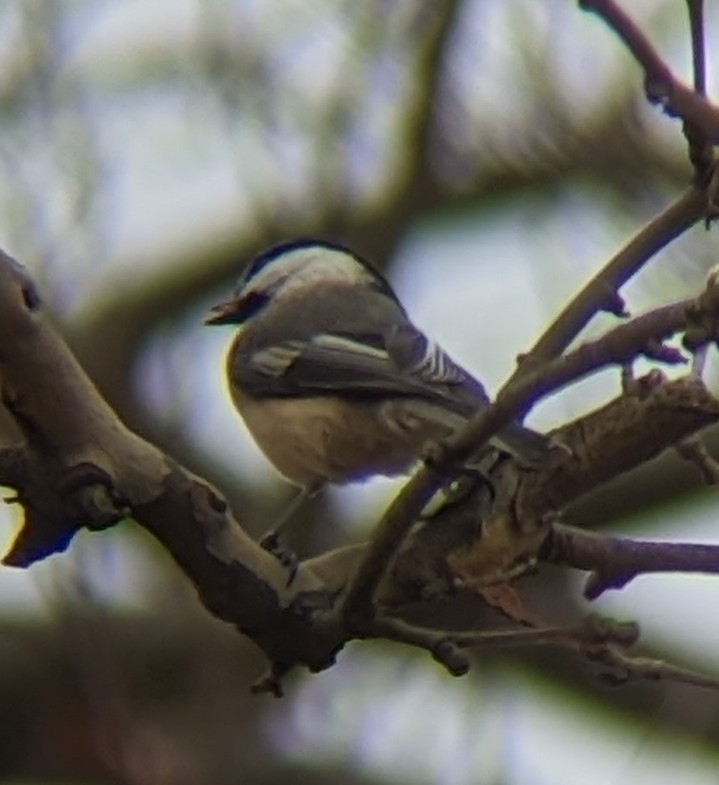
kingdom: Animalia
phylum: Chordata
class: Aves
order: Passeriformes
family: Paridae
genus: Poecile
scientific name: Poecile atricapillus
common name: Black-capped chickadee
